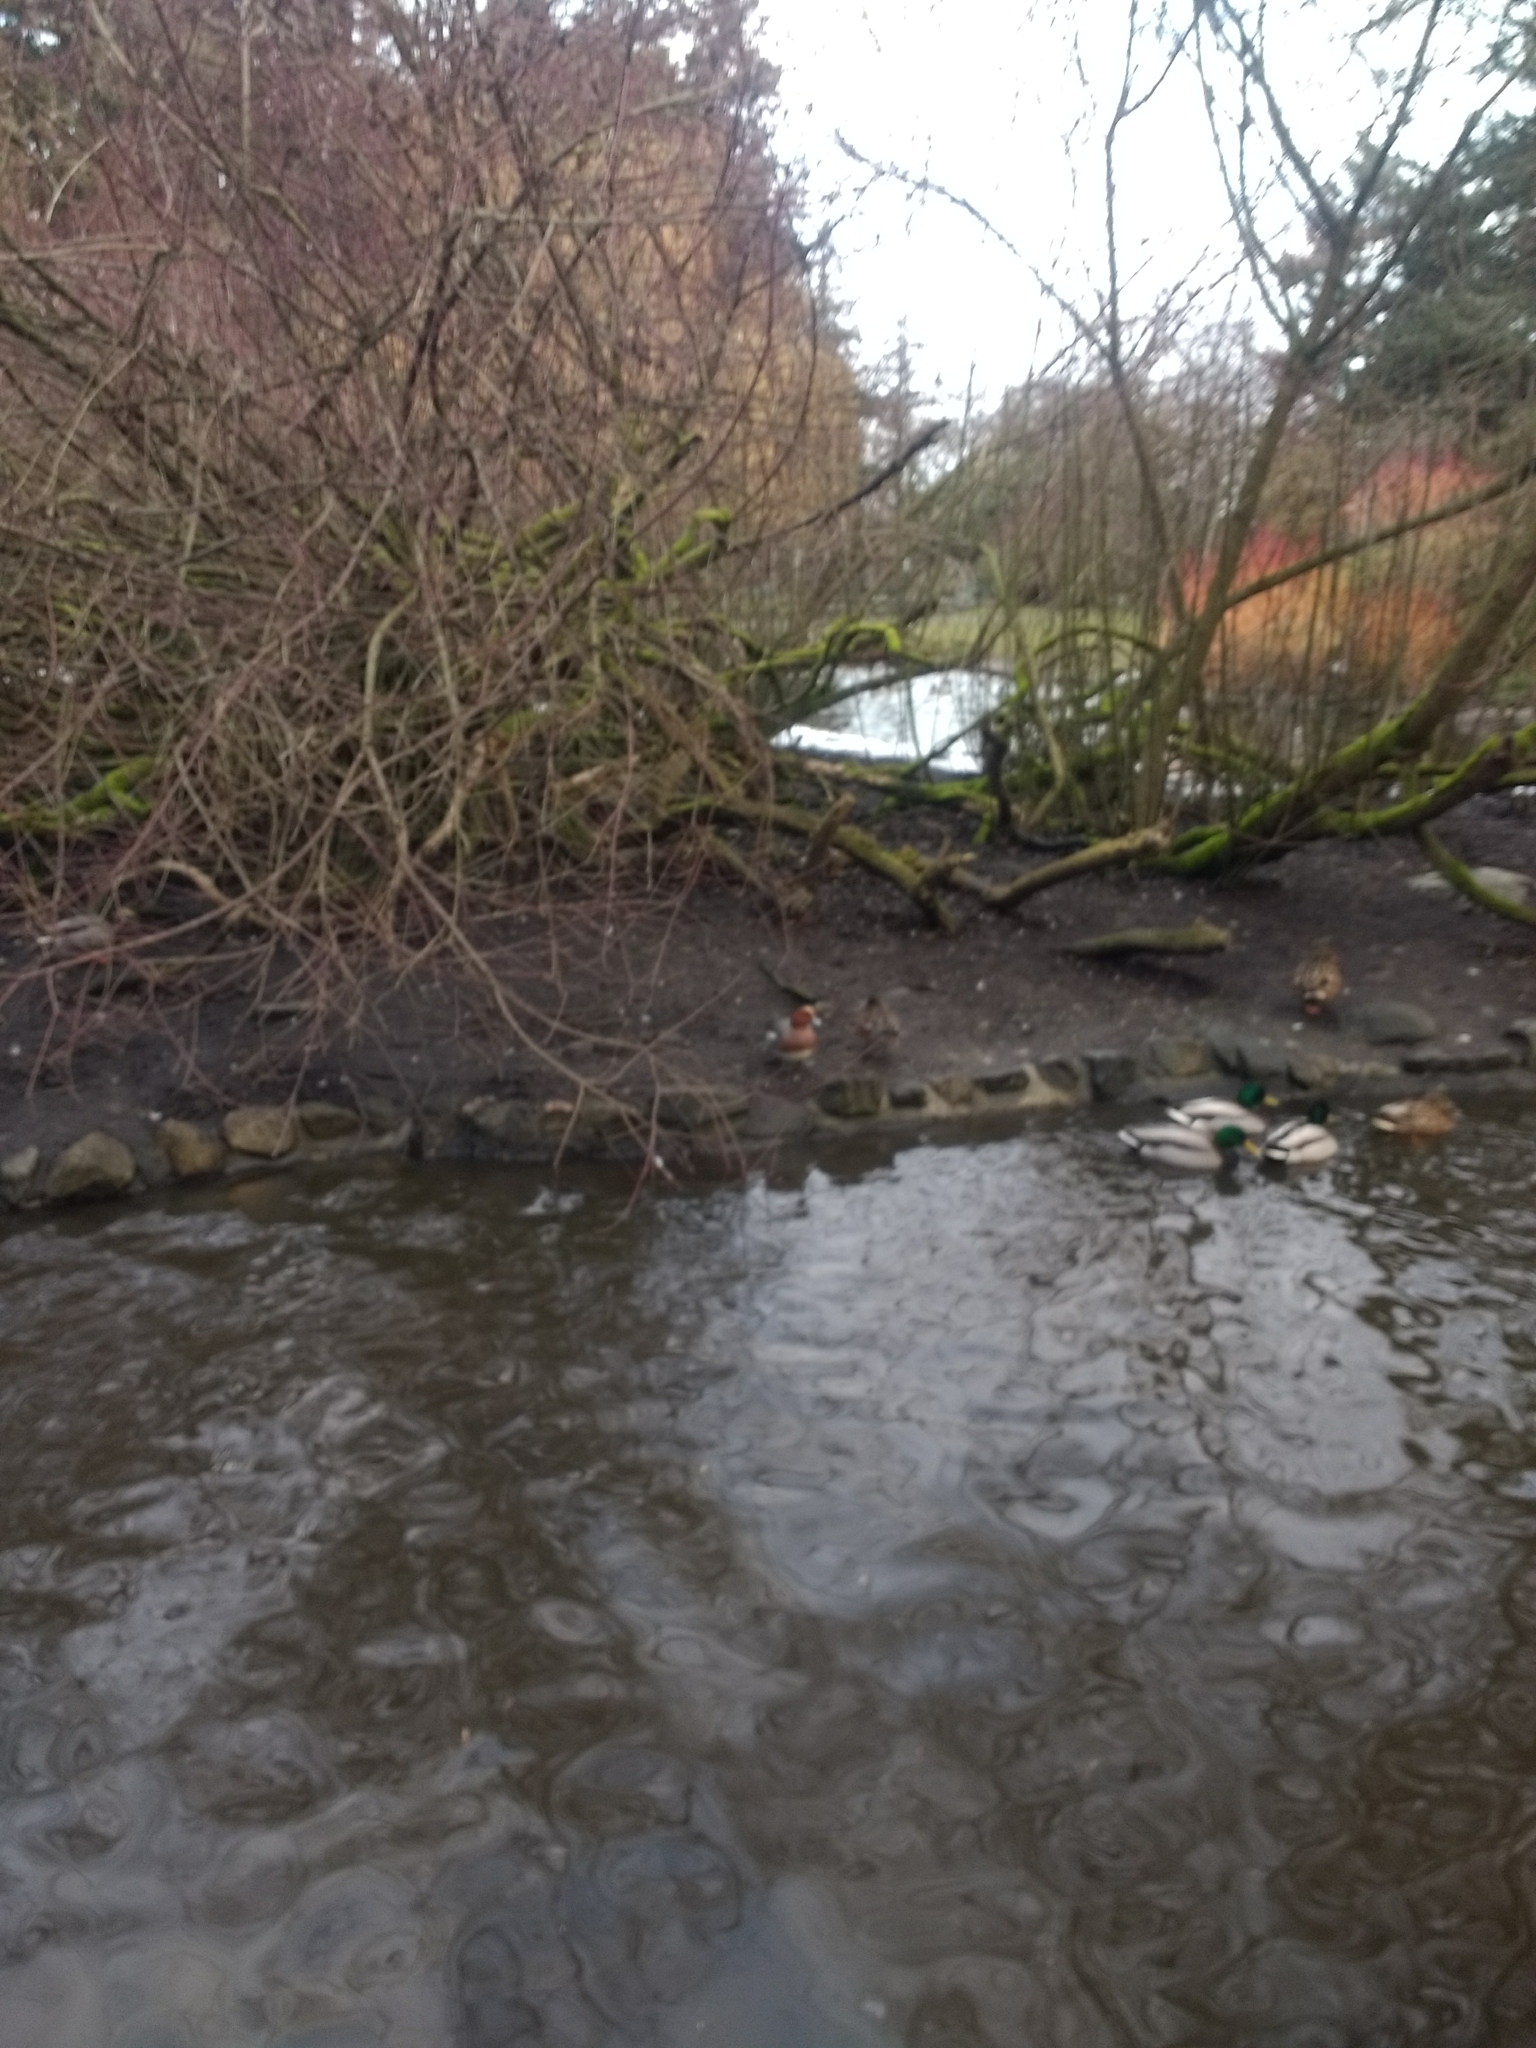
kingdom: Animalia
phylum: Chordata
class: Aves
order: Anseriformes
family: Anatidae
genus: Mareca
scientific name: Mareca penelope
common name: Eurasian wigeon
